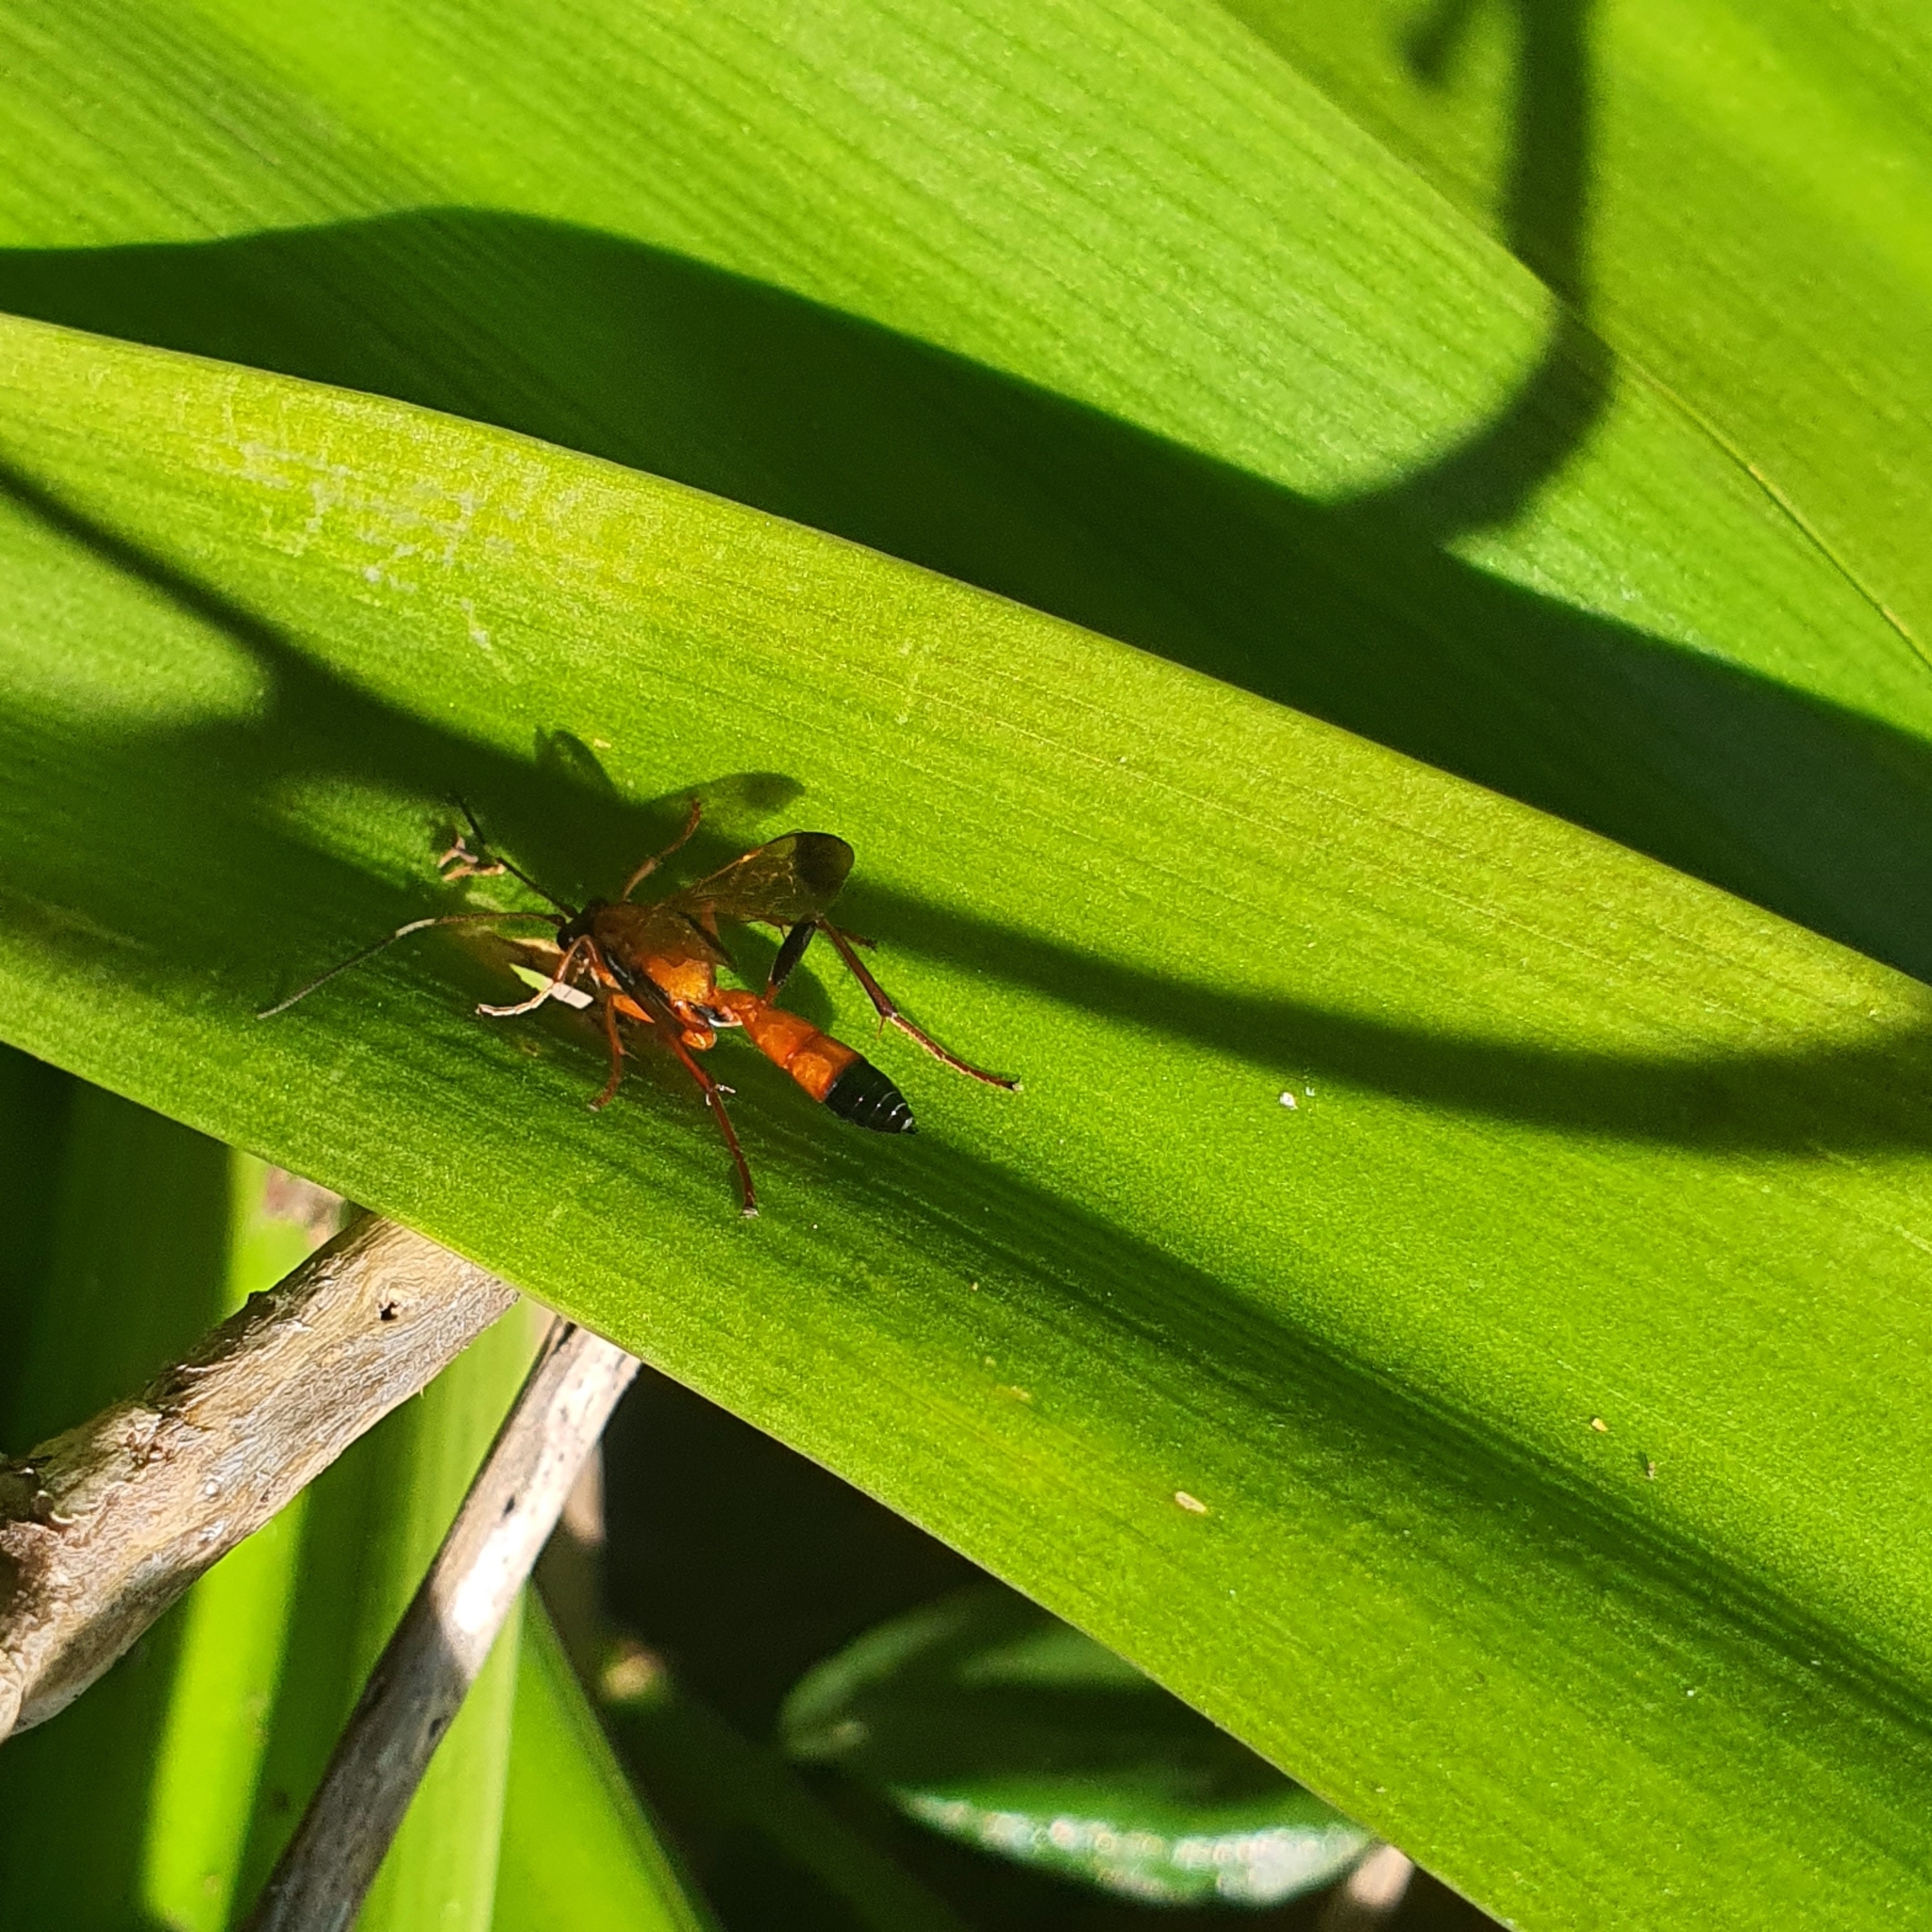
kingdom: Animalia
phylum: Arthropoda
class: Insecta
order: Hymenoptera
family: Ichneumonidae
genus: Ctenochares
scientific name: Ctenochares bicolorus
